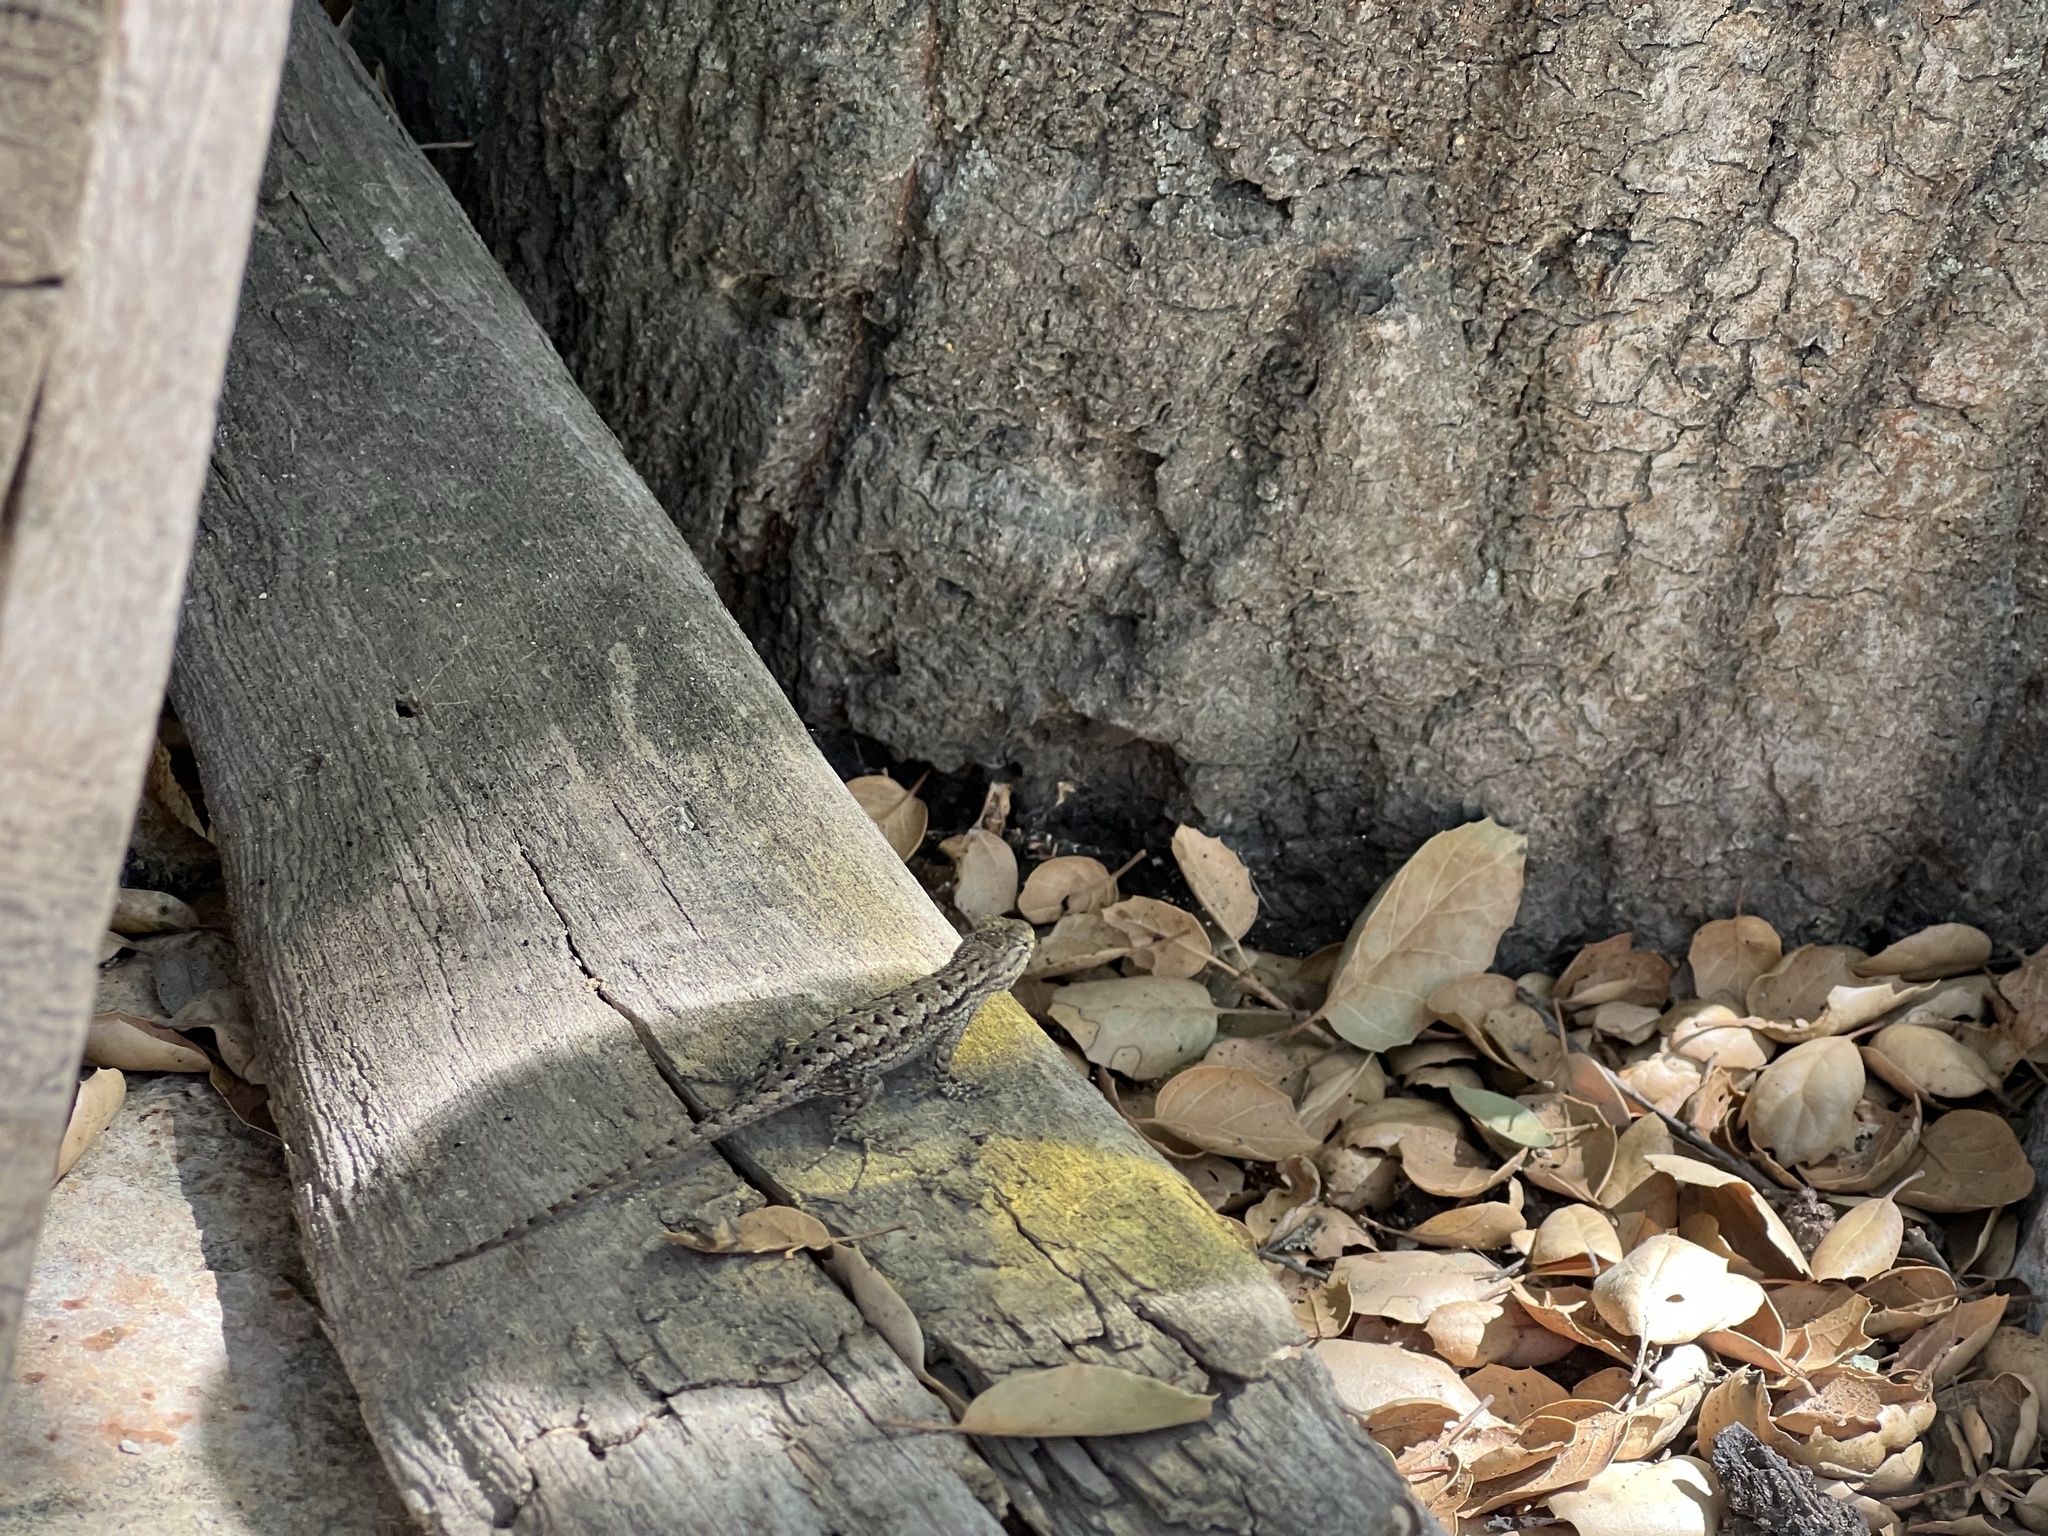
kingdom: Animalia
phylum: Chordata
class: Squamata
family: Phrynosomatidae
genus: Sceloporus
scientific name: Sceloporus occidentalis
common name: Western fence lizard
